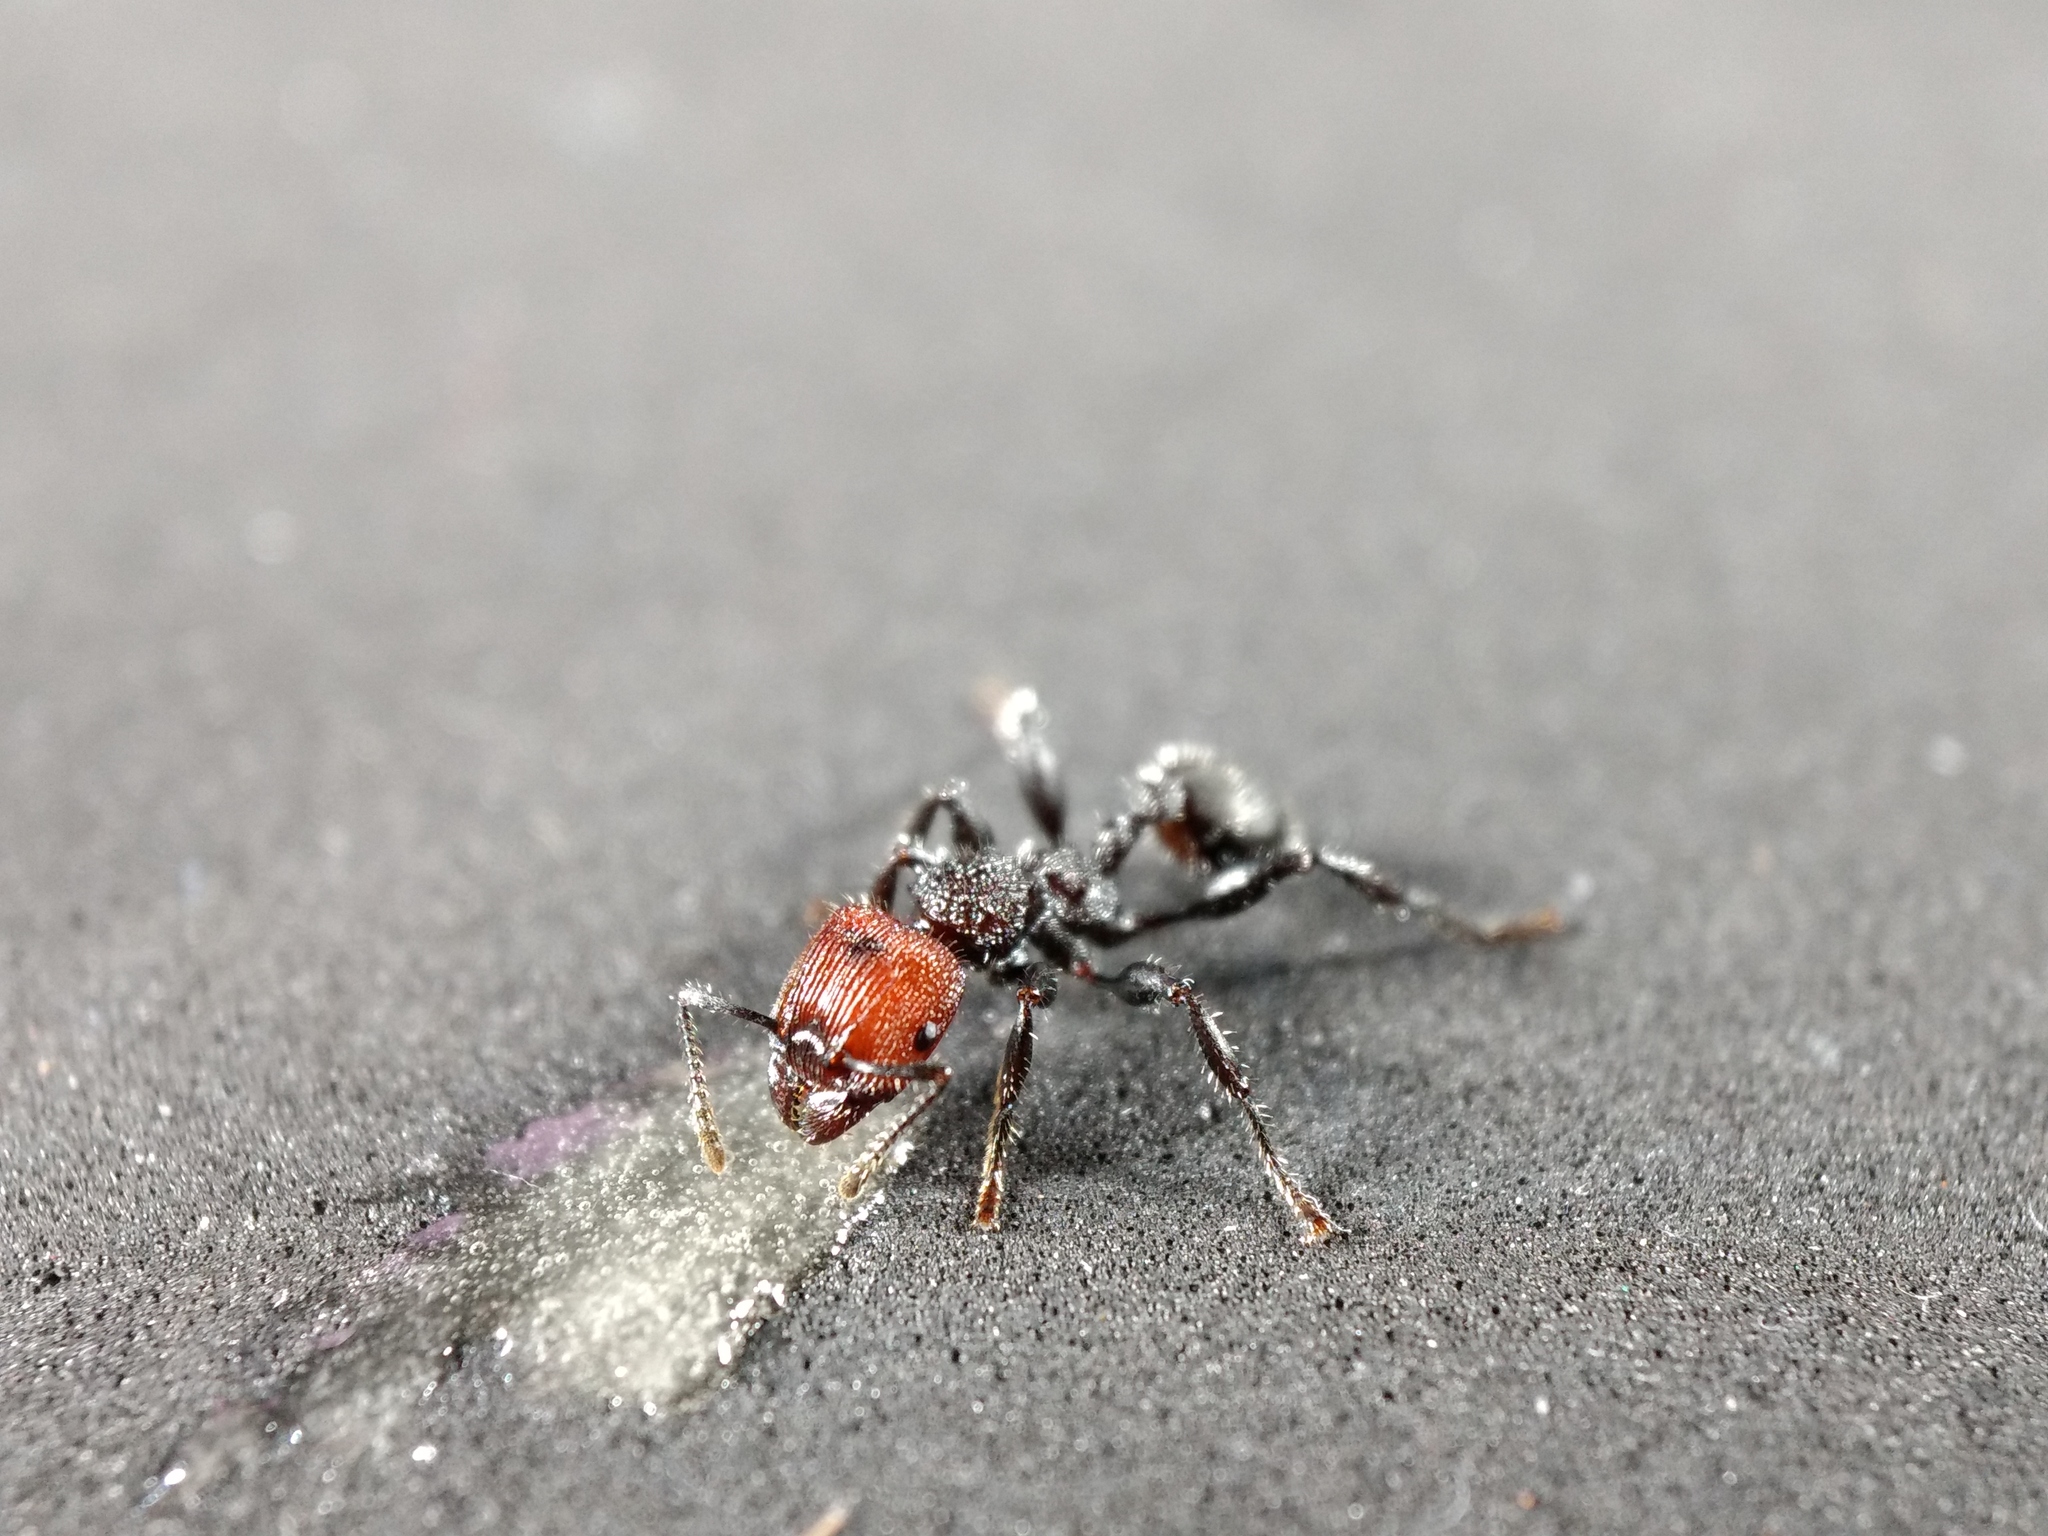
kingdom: Animalia
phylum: Arthropoda
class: Insecta
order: Hymenoptera
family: Formicidae
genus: Podomyrma
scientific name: Podomyrma micans
